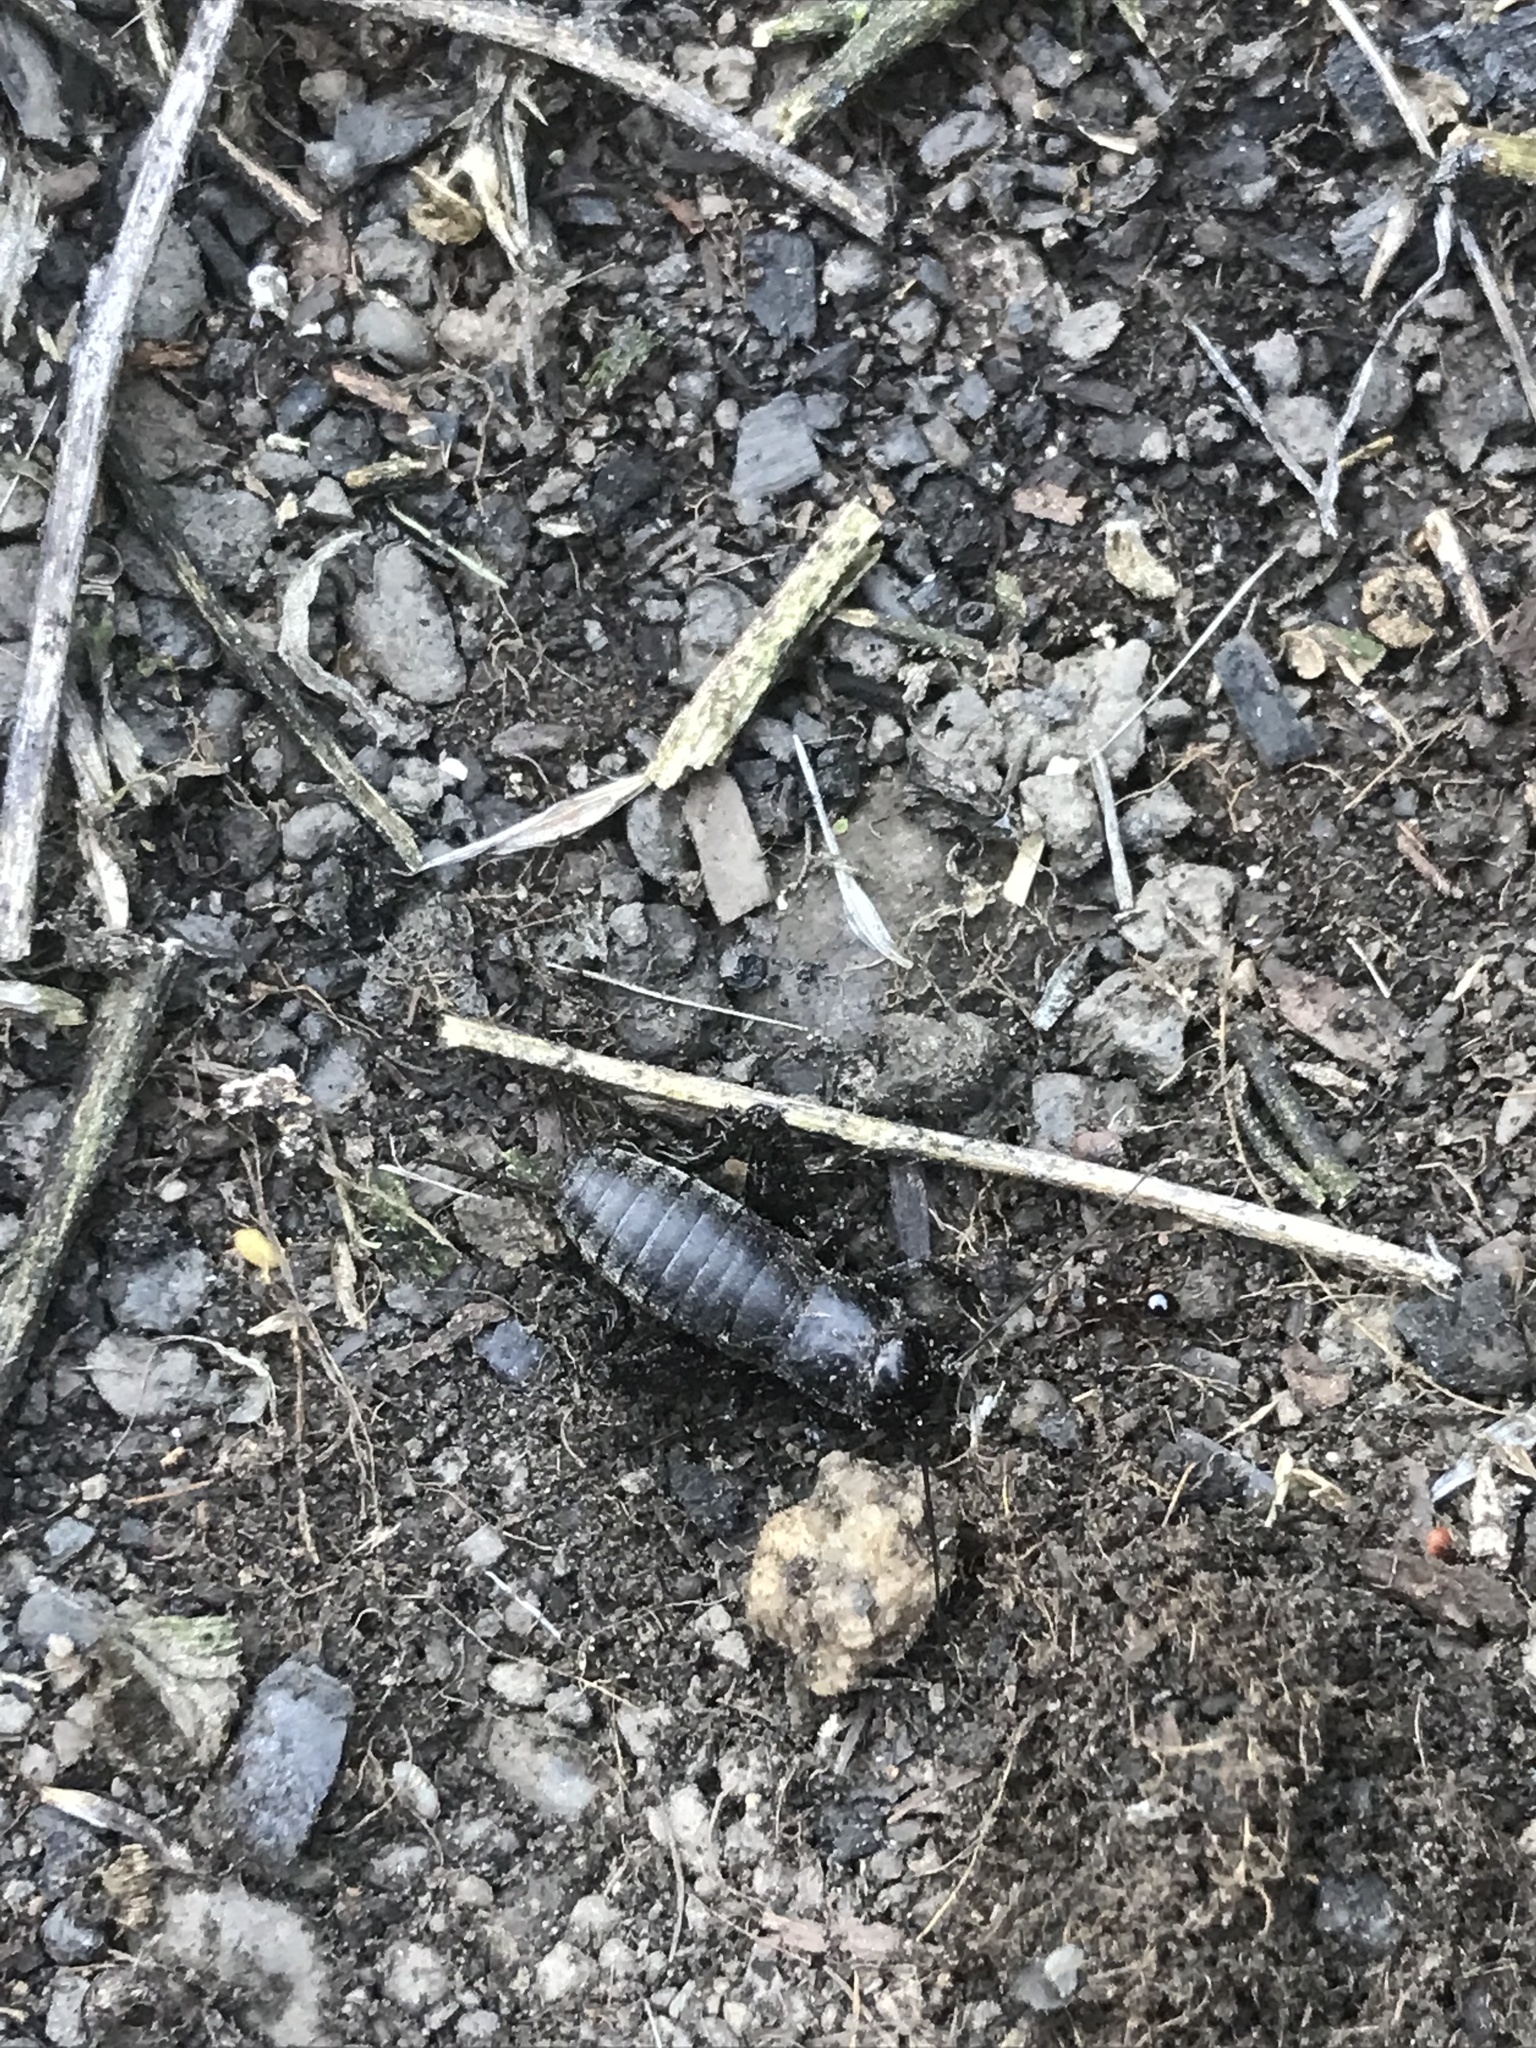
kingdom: Animalia
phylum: Arthropoda
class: Insecta
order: Orthoptera
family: Gryllidae
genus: Gryllus
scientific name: Gryllus veletis
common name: Spring field cricket
